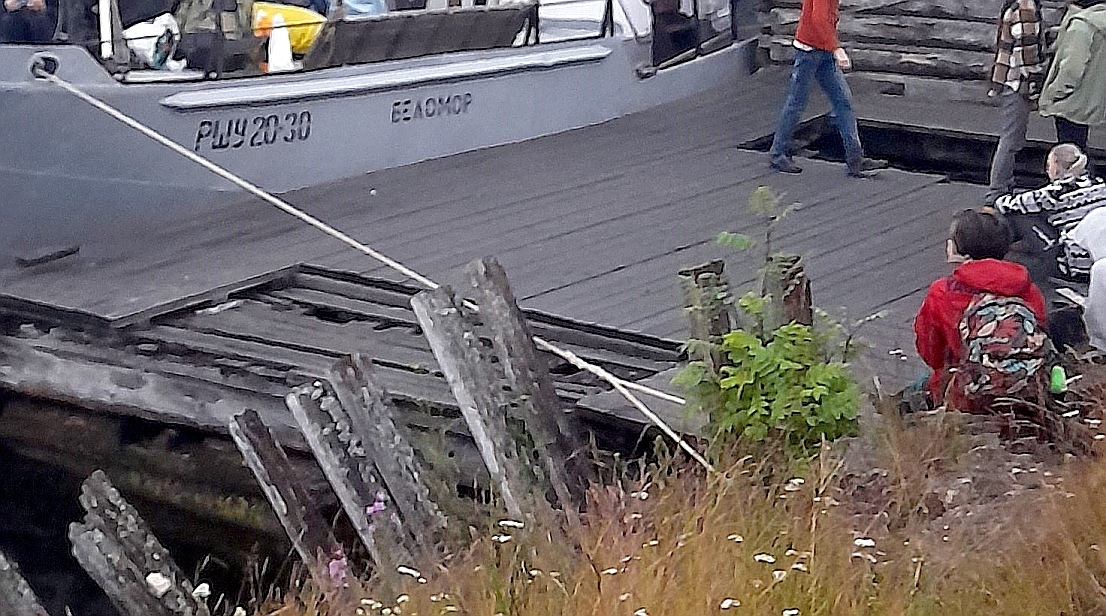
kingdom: Plantae
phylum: Tracheophyta
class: Magnoliopsida
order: Rosales
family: Rosaceae
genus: Sorbus
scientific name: Sorbus aucuparia
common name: Rowan
